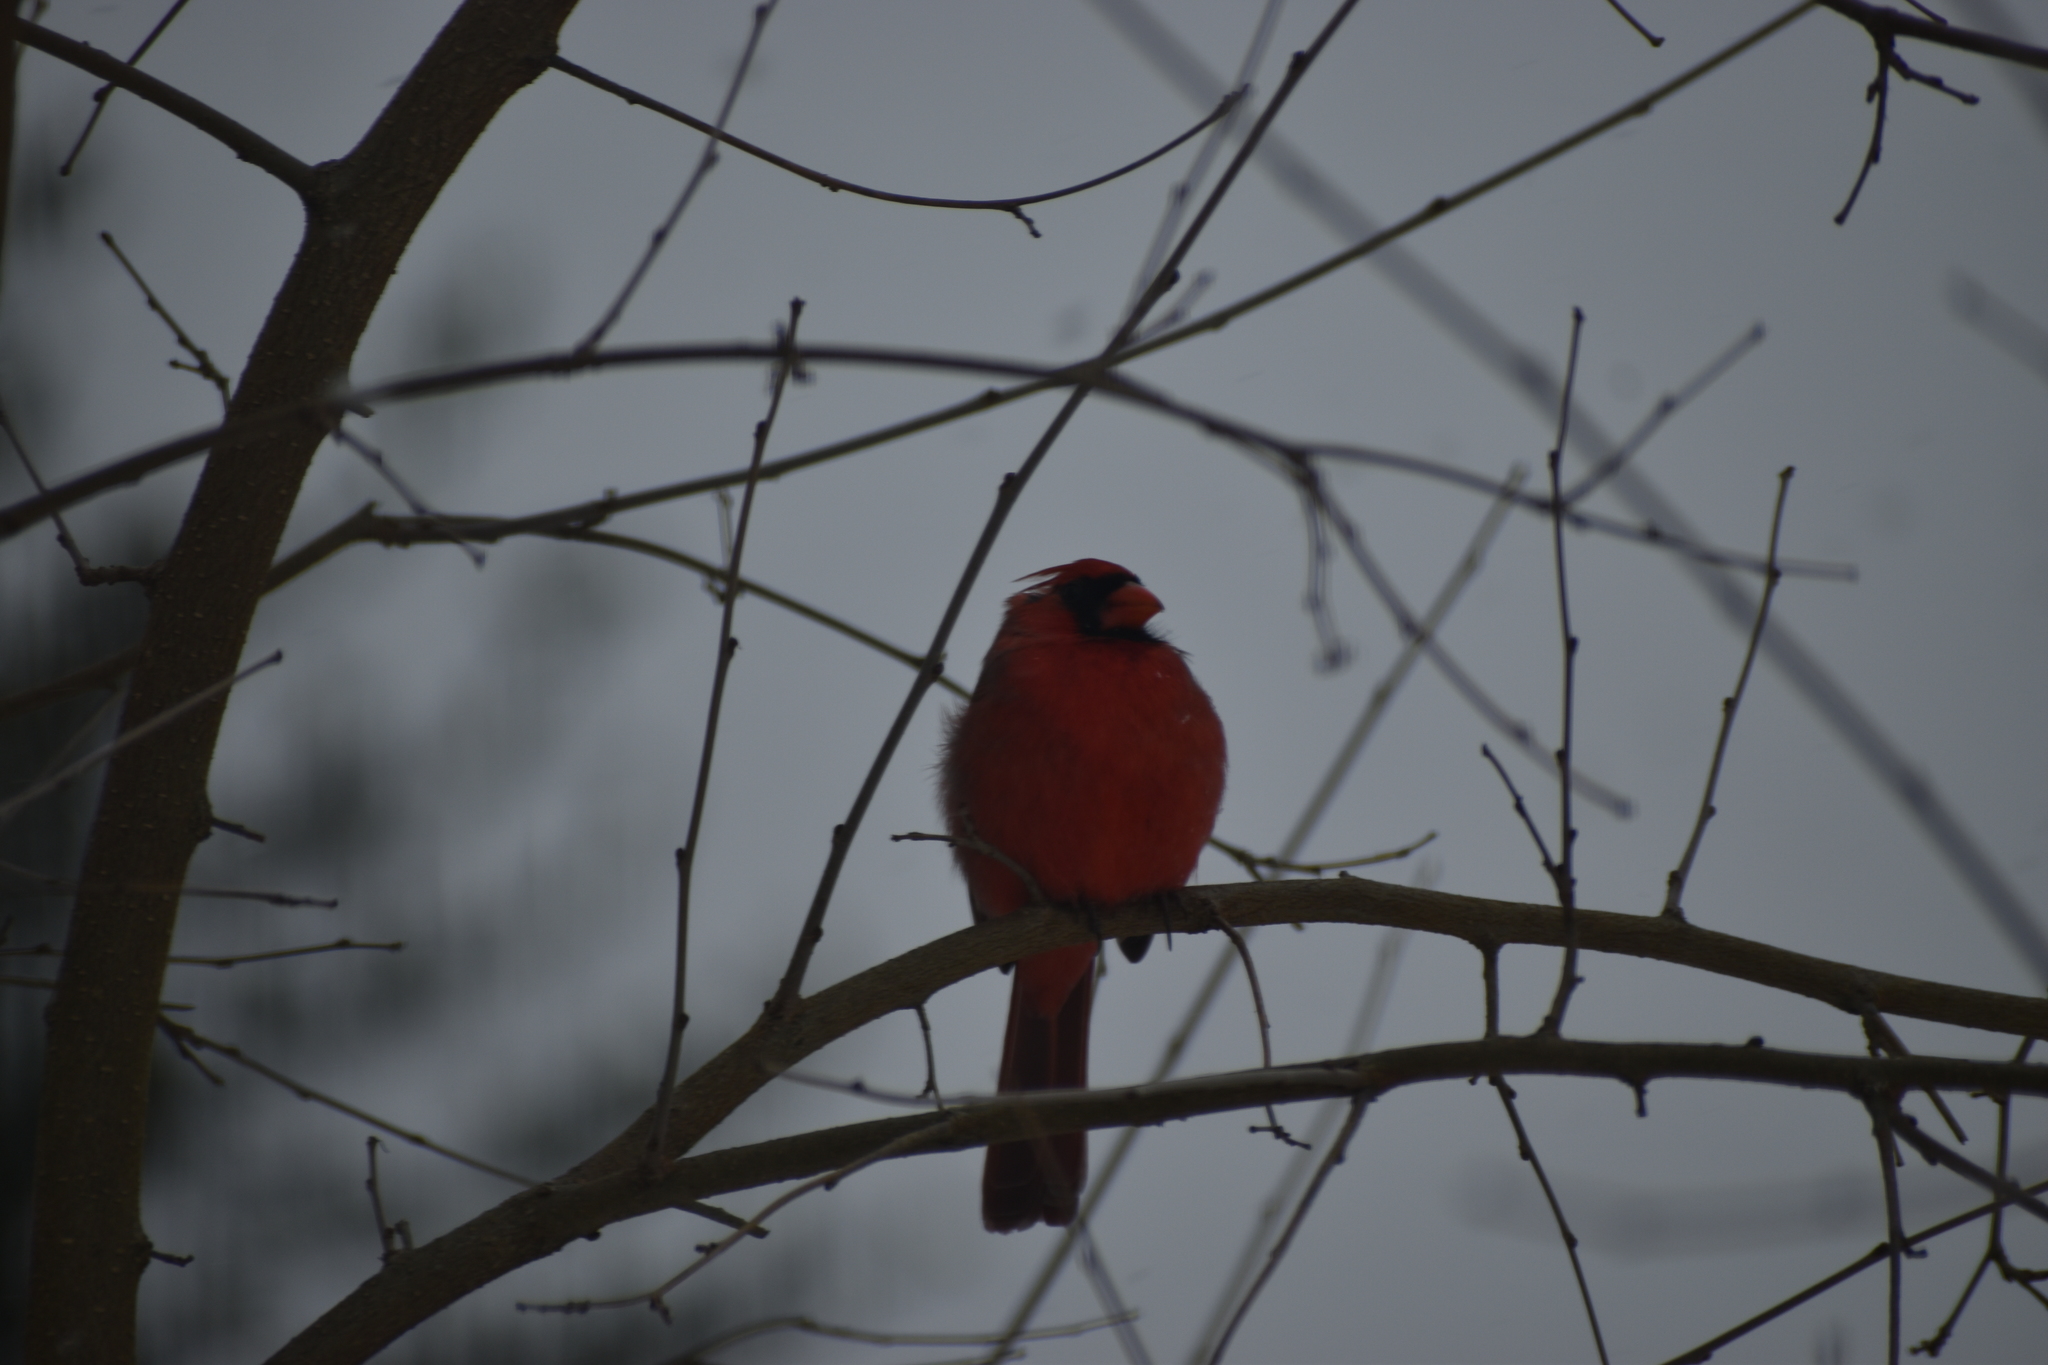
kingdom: Animalia
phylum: Chordata
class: Aves
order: Passeriformes
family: Cardinalidae
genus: Cardinalis
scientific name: Cardinalis cardinalis
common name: Northern cardinal
